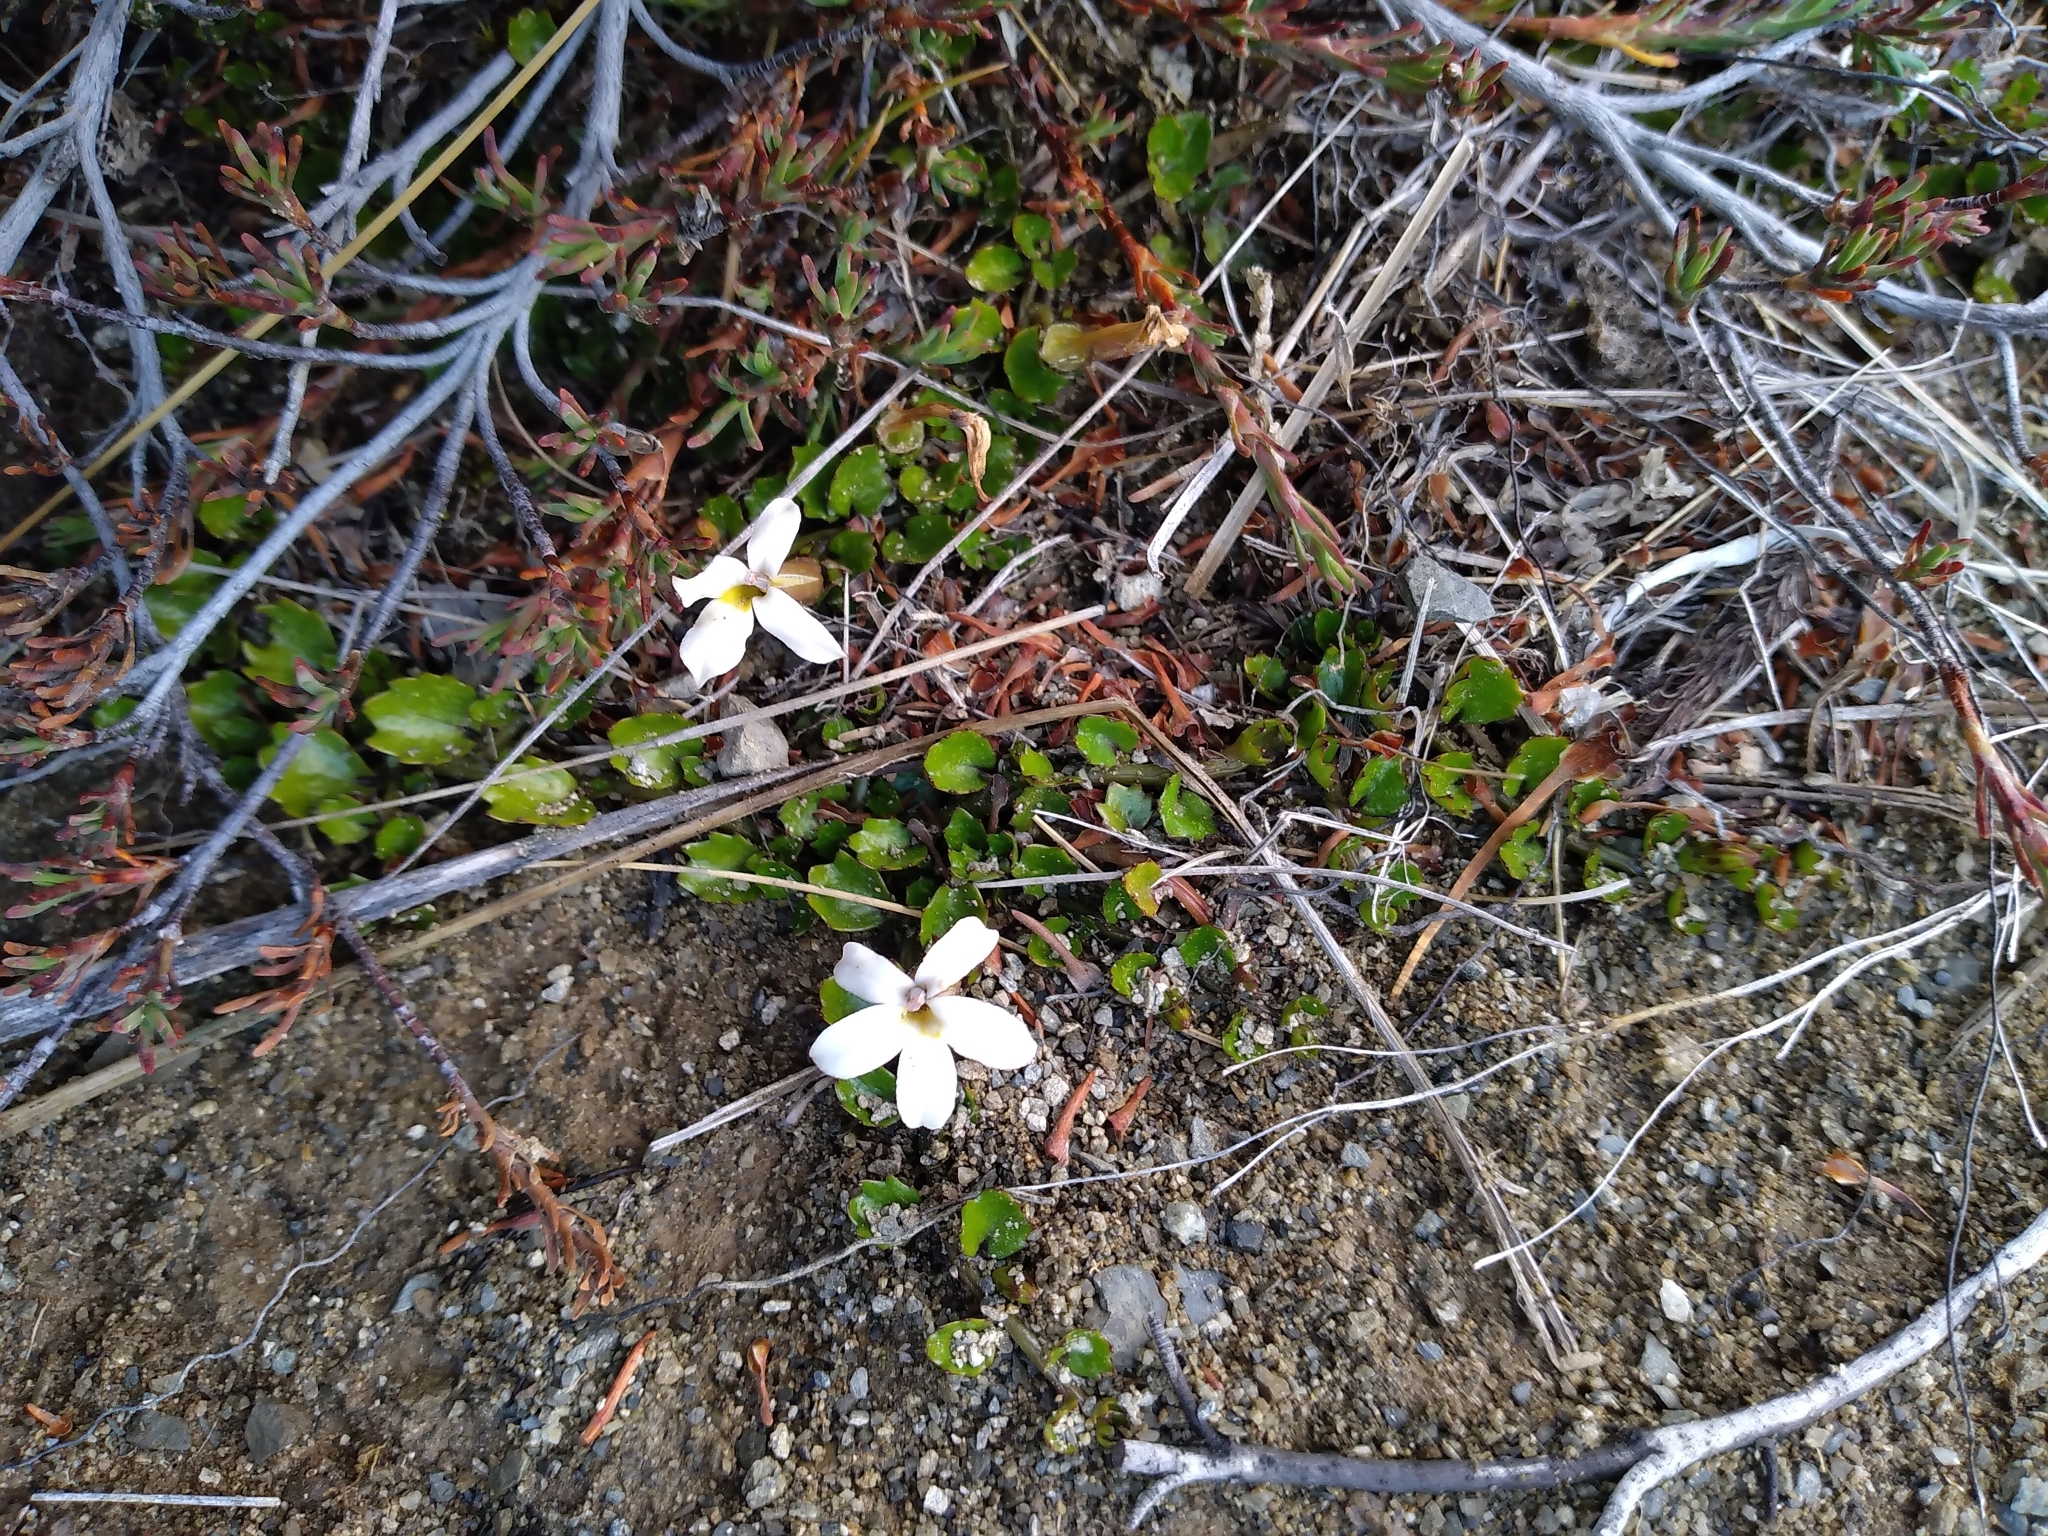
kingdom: Plantae
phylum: Tracheophyta
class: Magnoliopsida
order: Asterales
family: Campanulaceae
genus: Lobelia
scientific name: Lobelia macrodon
